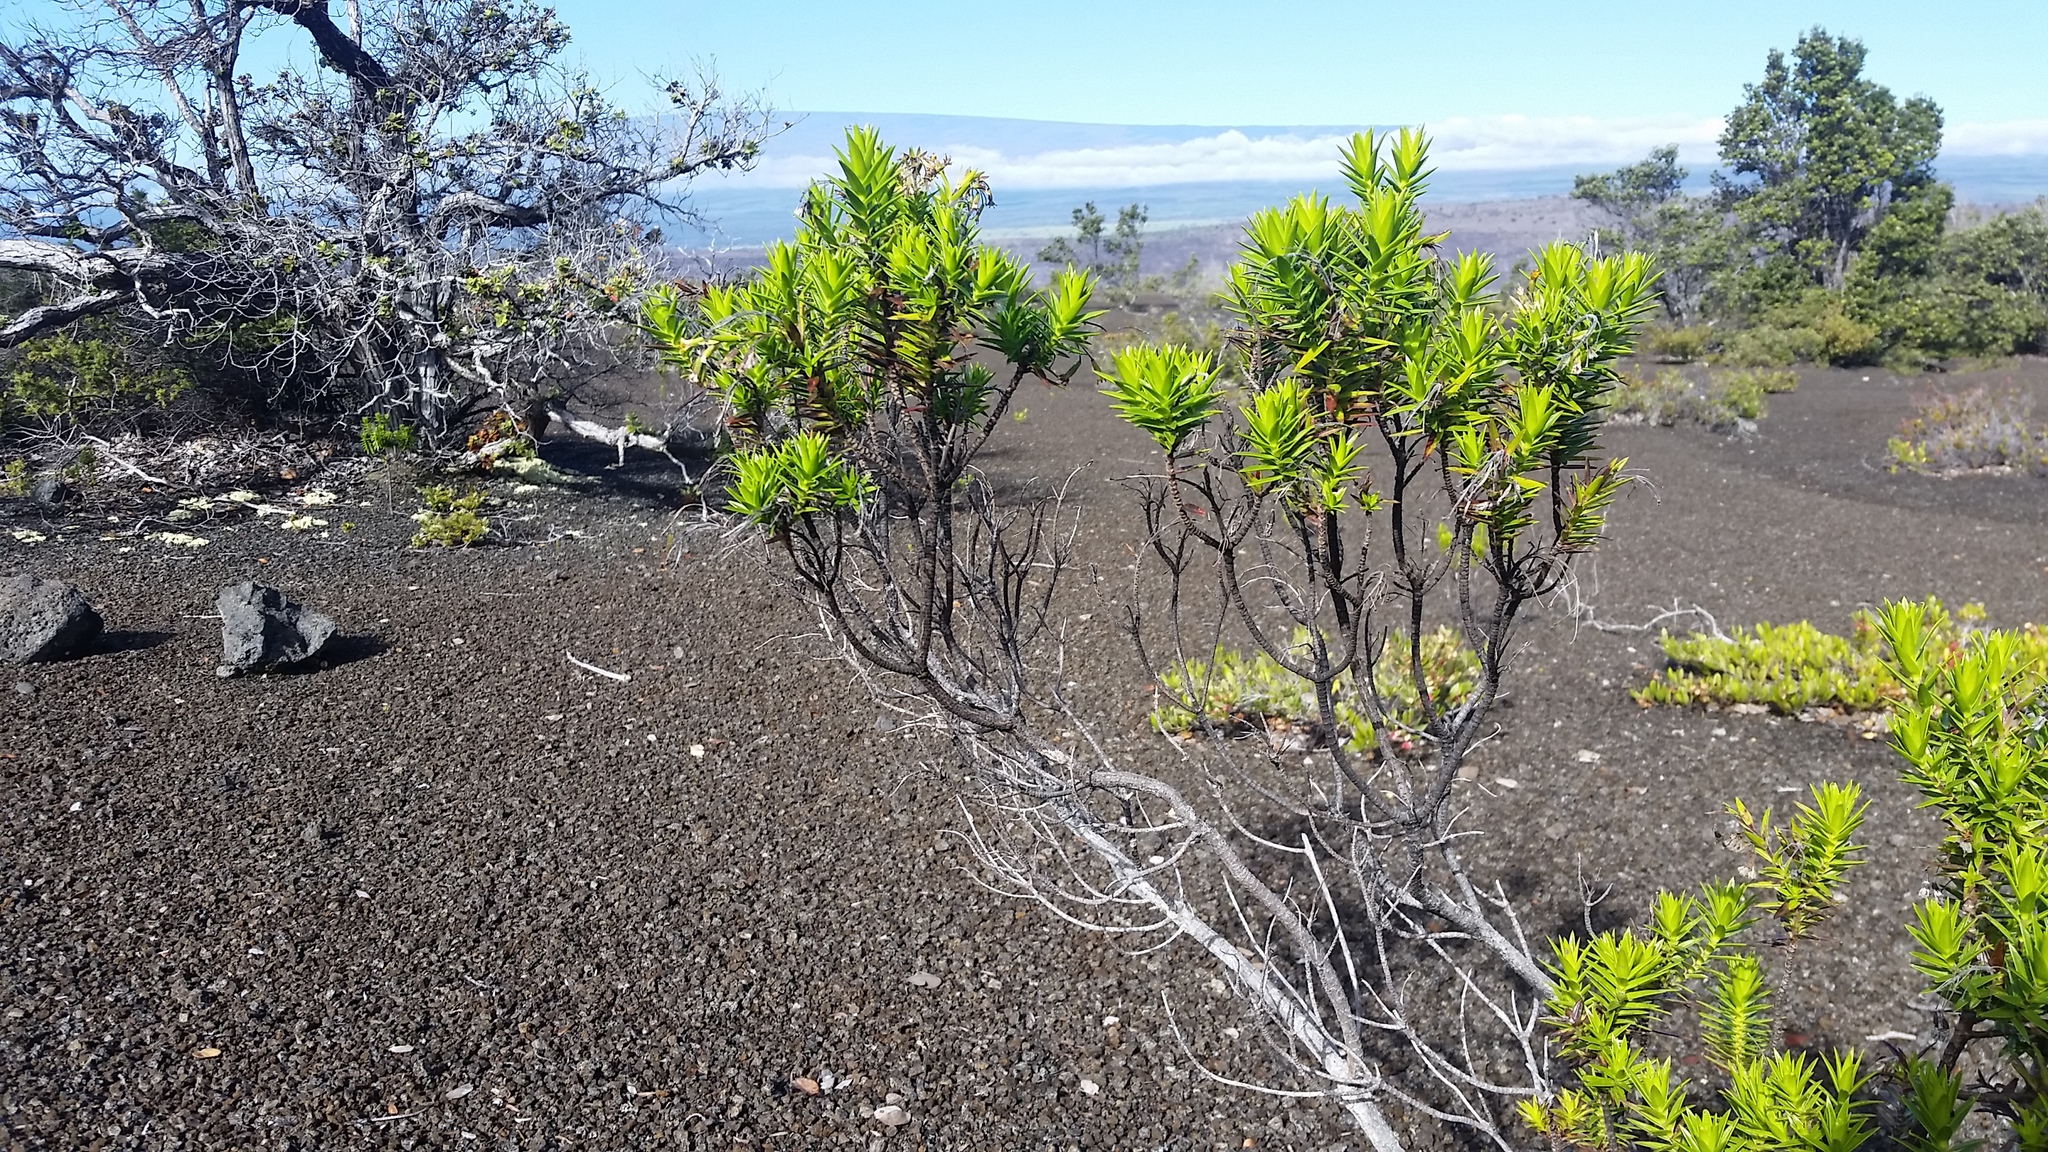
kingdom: Plantae
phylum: Tracheophyta
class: Magnoliopsida
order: Asterales
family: Asteraceae
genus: Dubautia
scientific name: Dubautia ciliolata
